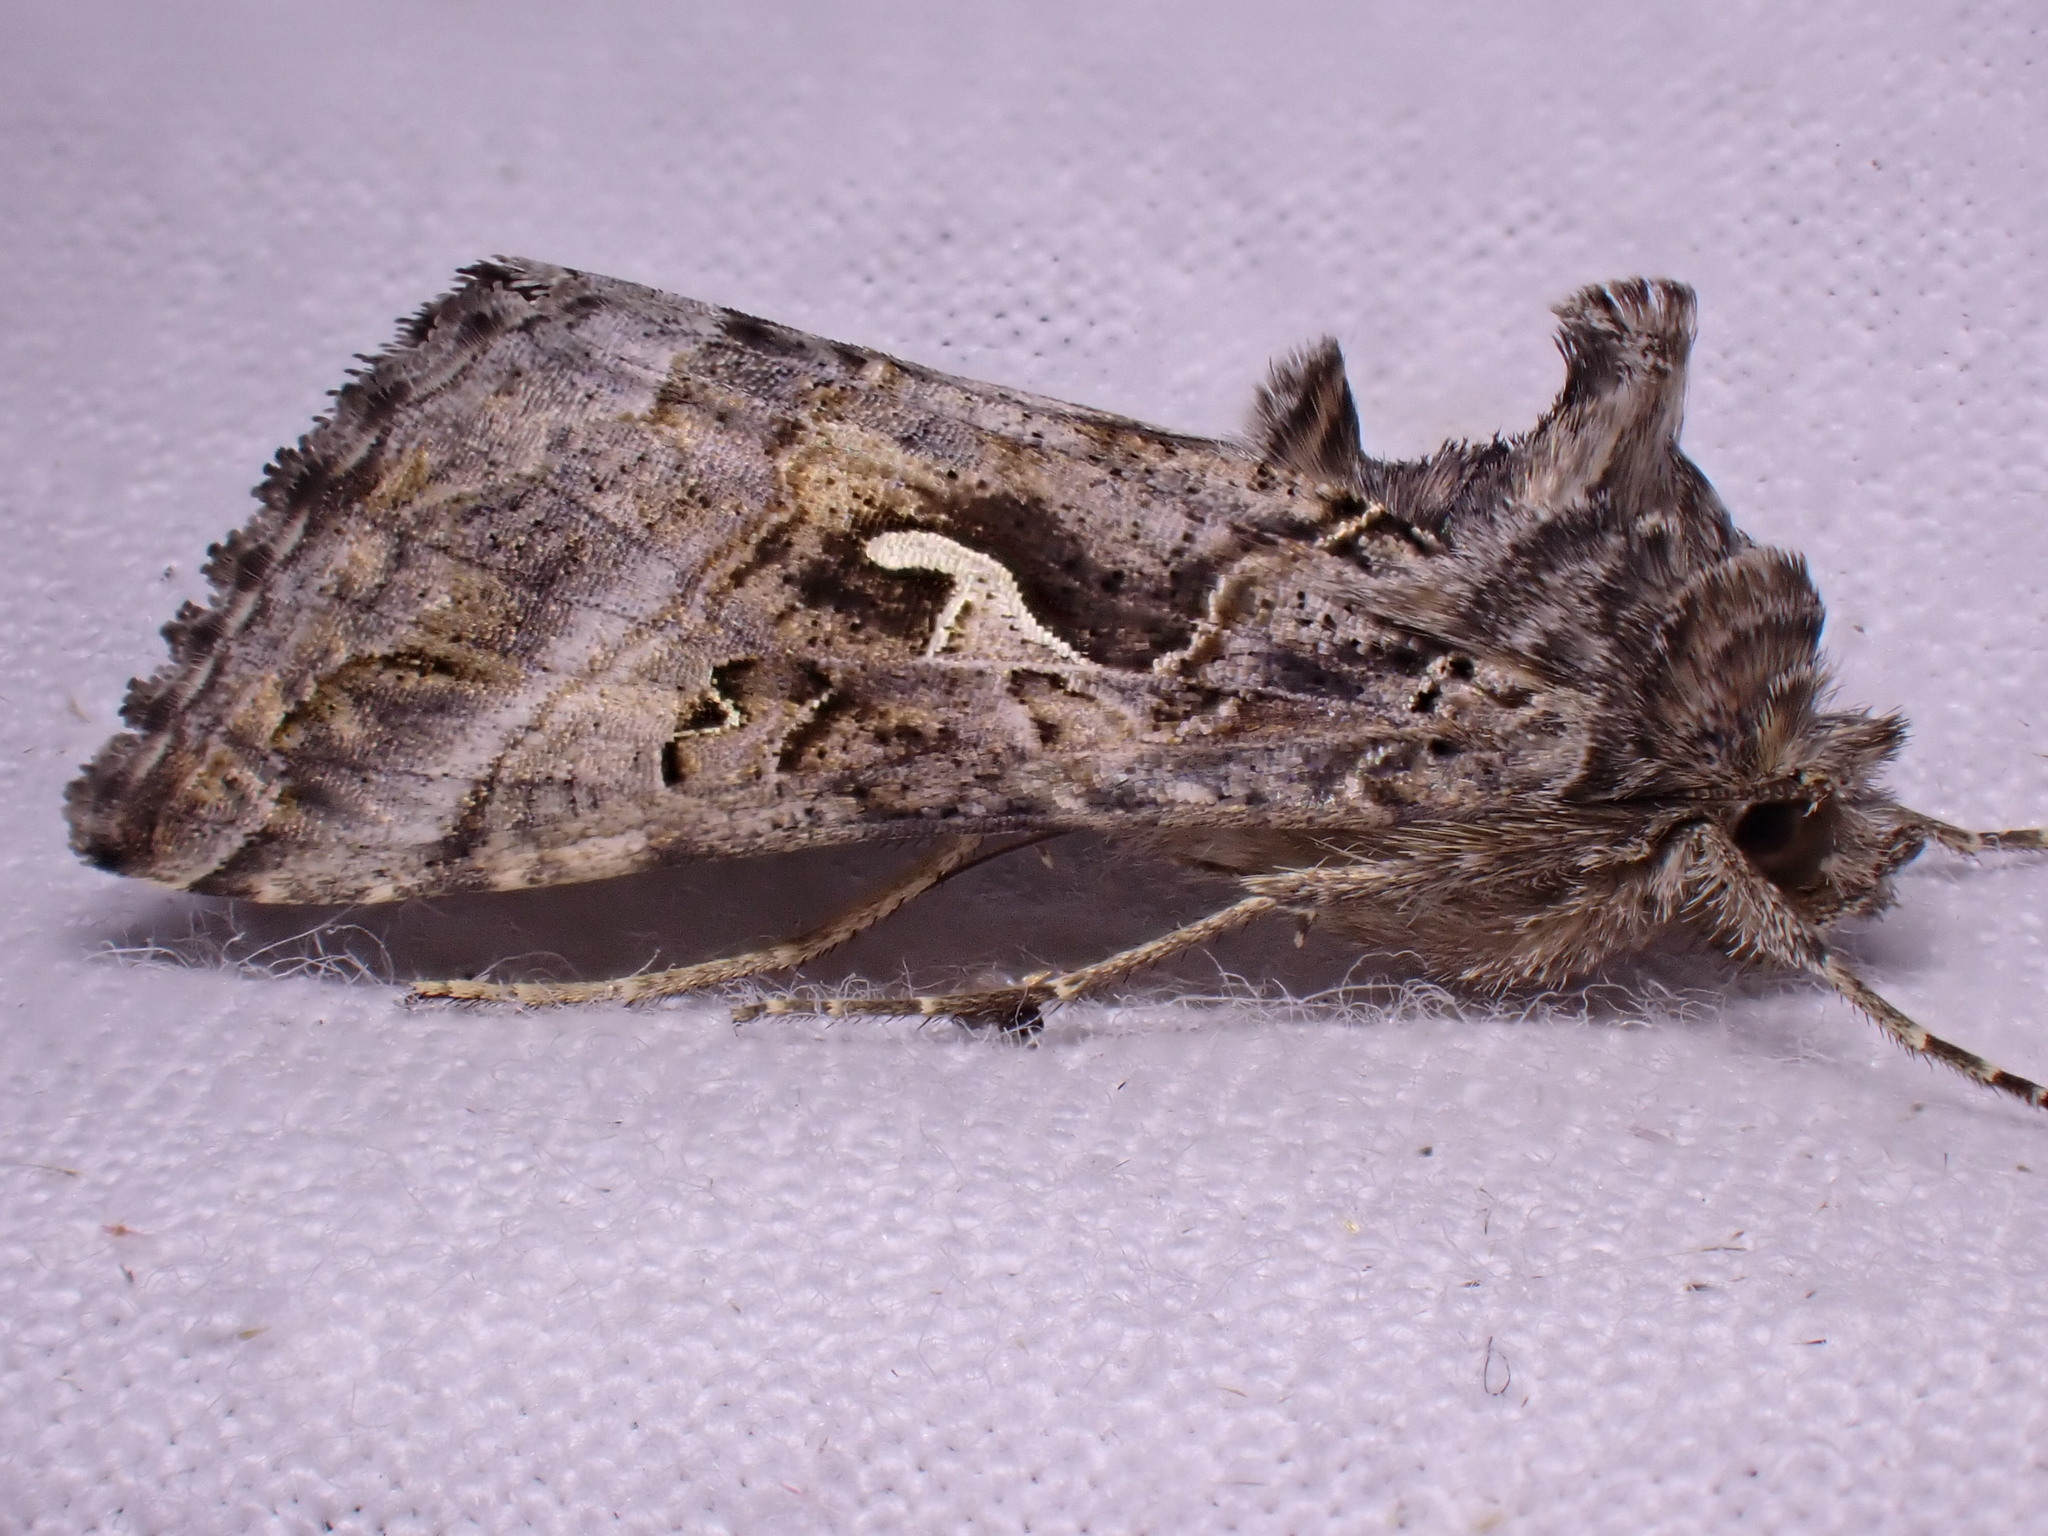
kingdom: Animalia
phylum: Arthropoda
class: Insecta
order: Lepidoptera
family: Noctuidae
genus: Autographa
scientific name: Autographa gamma
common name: Silver y
